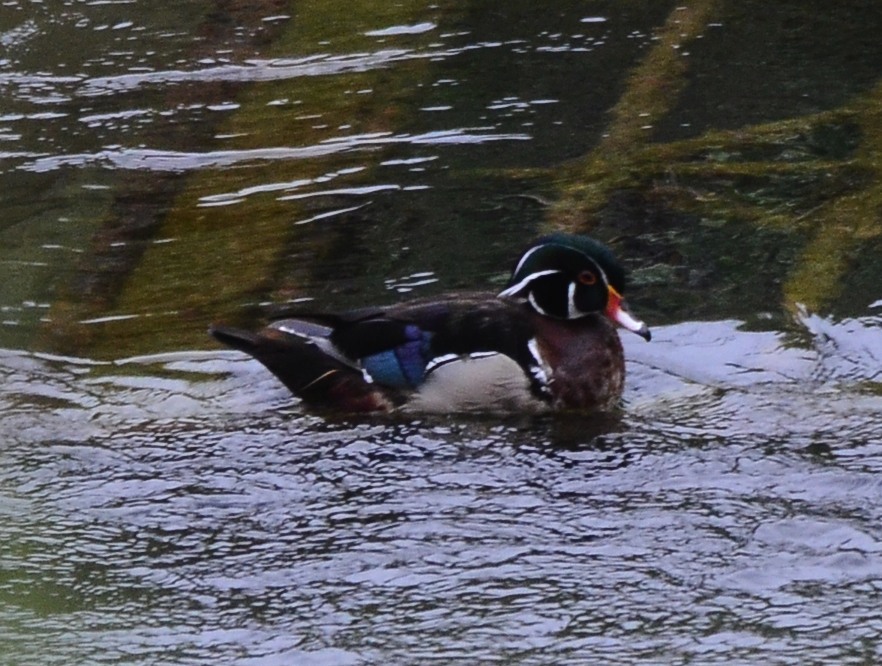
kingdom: Animalia
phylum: Chordata
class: Aves
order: Anseriformes
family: Anatidae
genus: Aix
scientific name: Aix sponsa
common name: Wood duck
